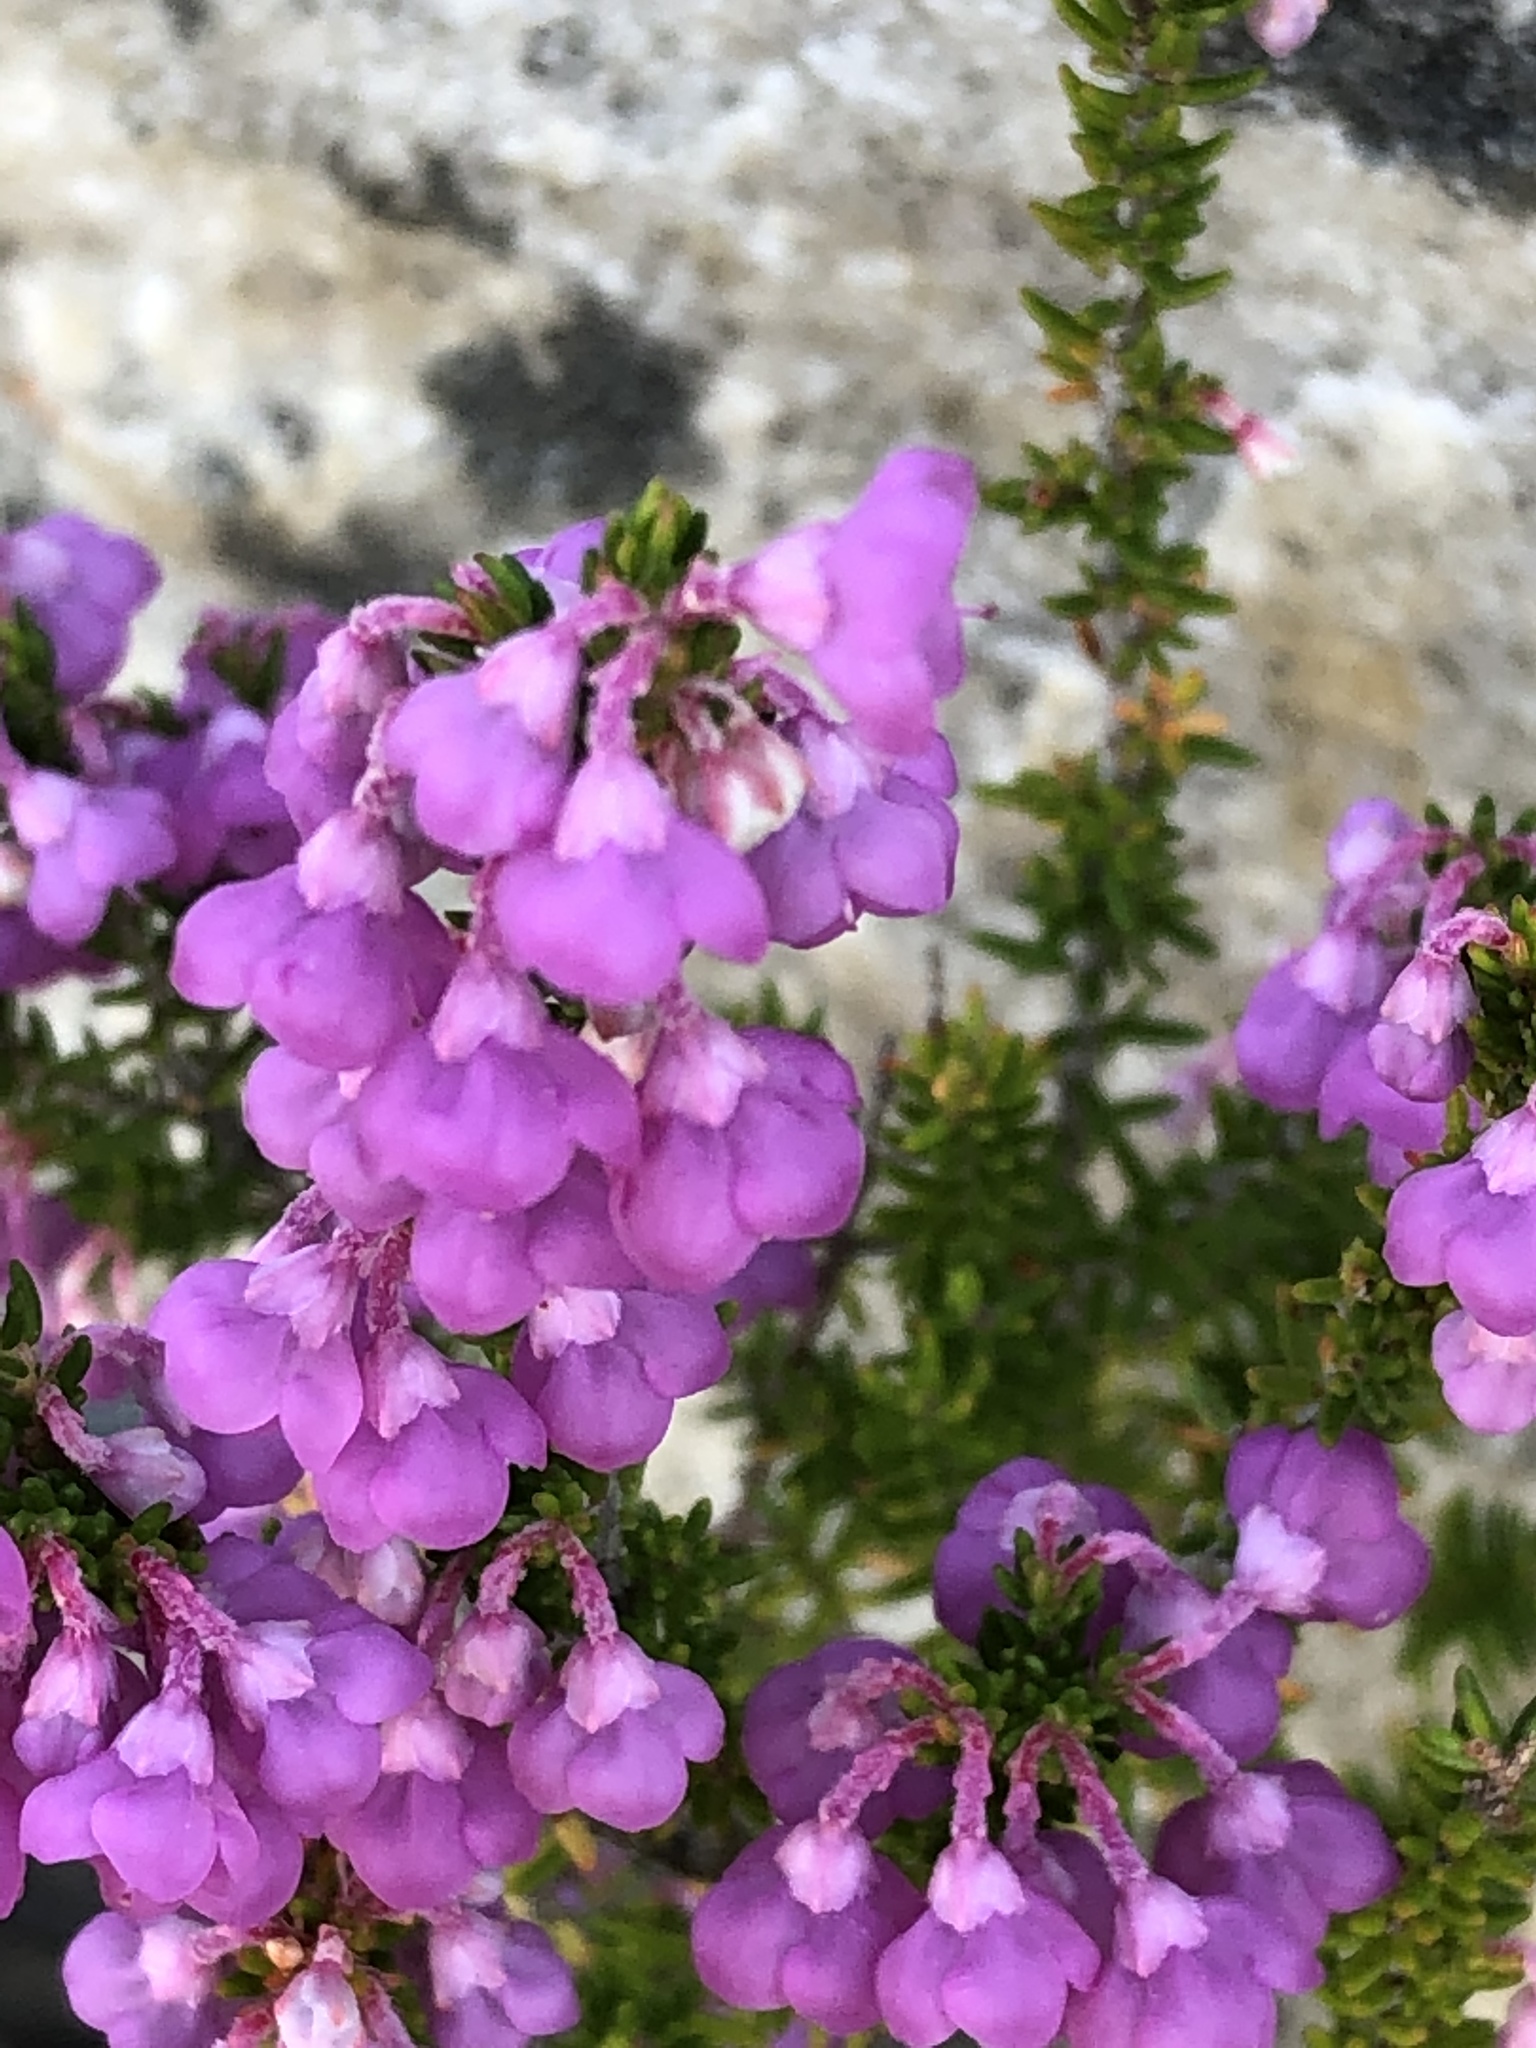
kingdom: Plantae
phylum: Tracheophyta
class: Magnoliopsida
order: Ericales
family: Ericaceae
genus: Erica
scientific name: Erica melanthera
